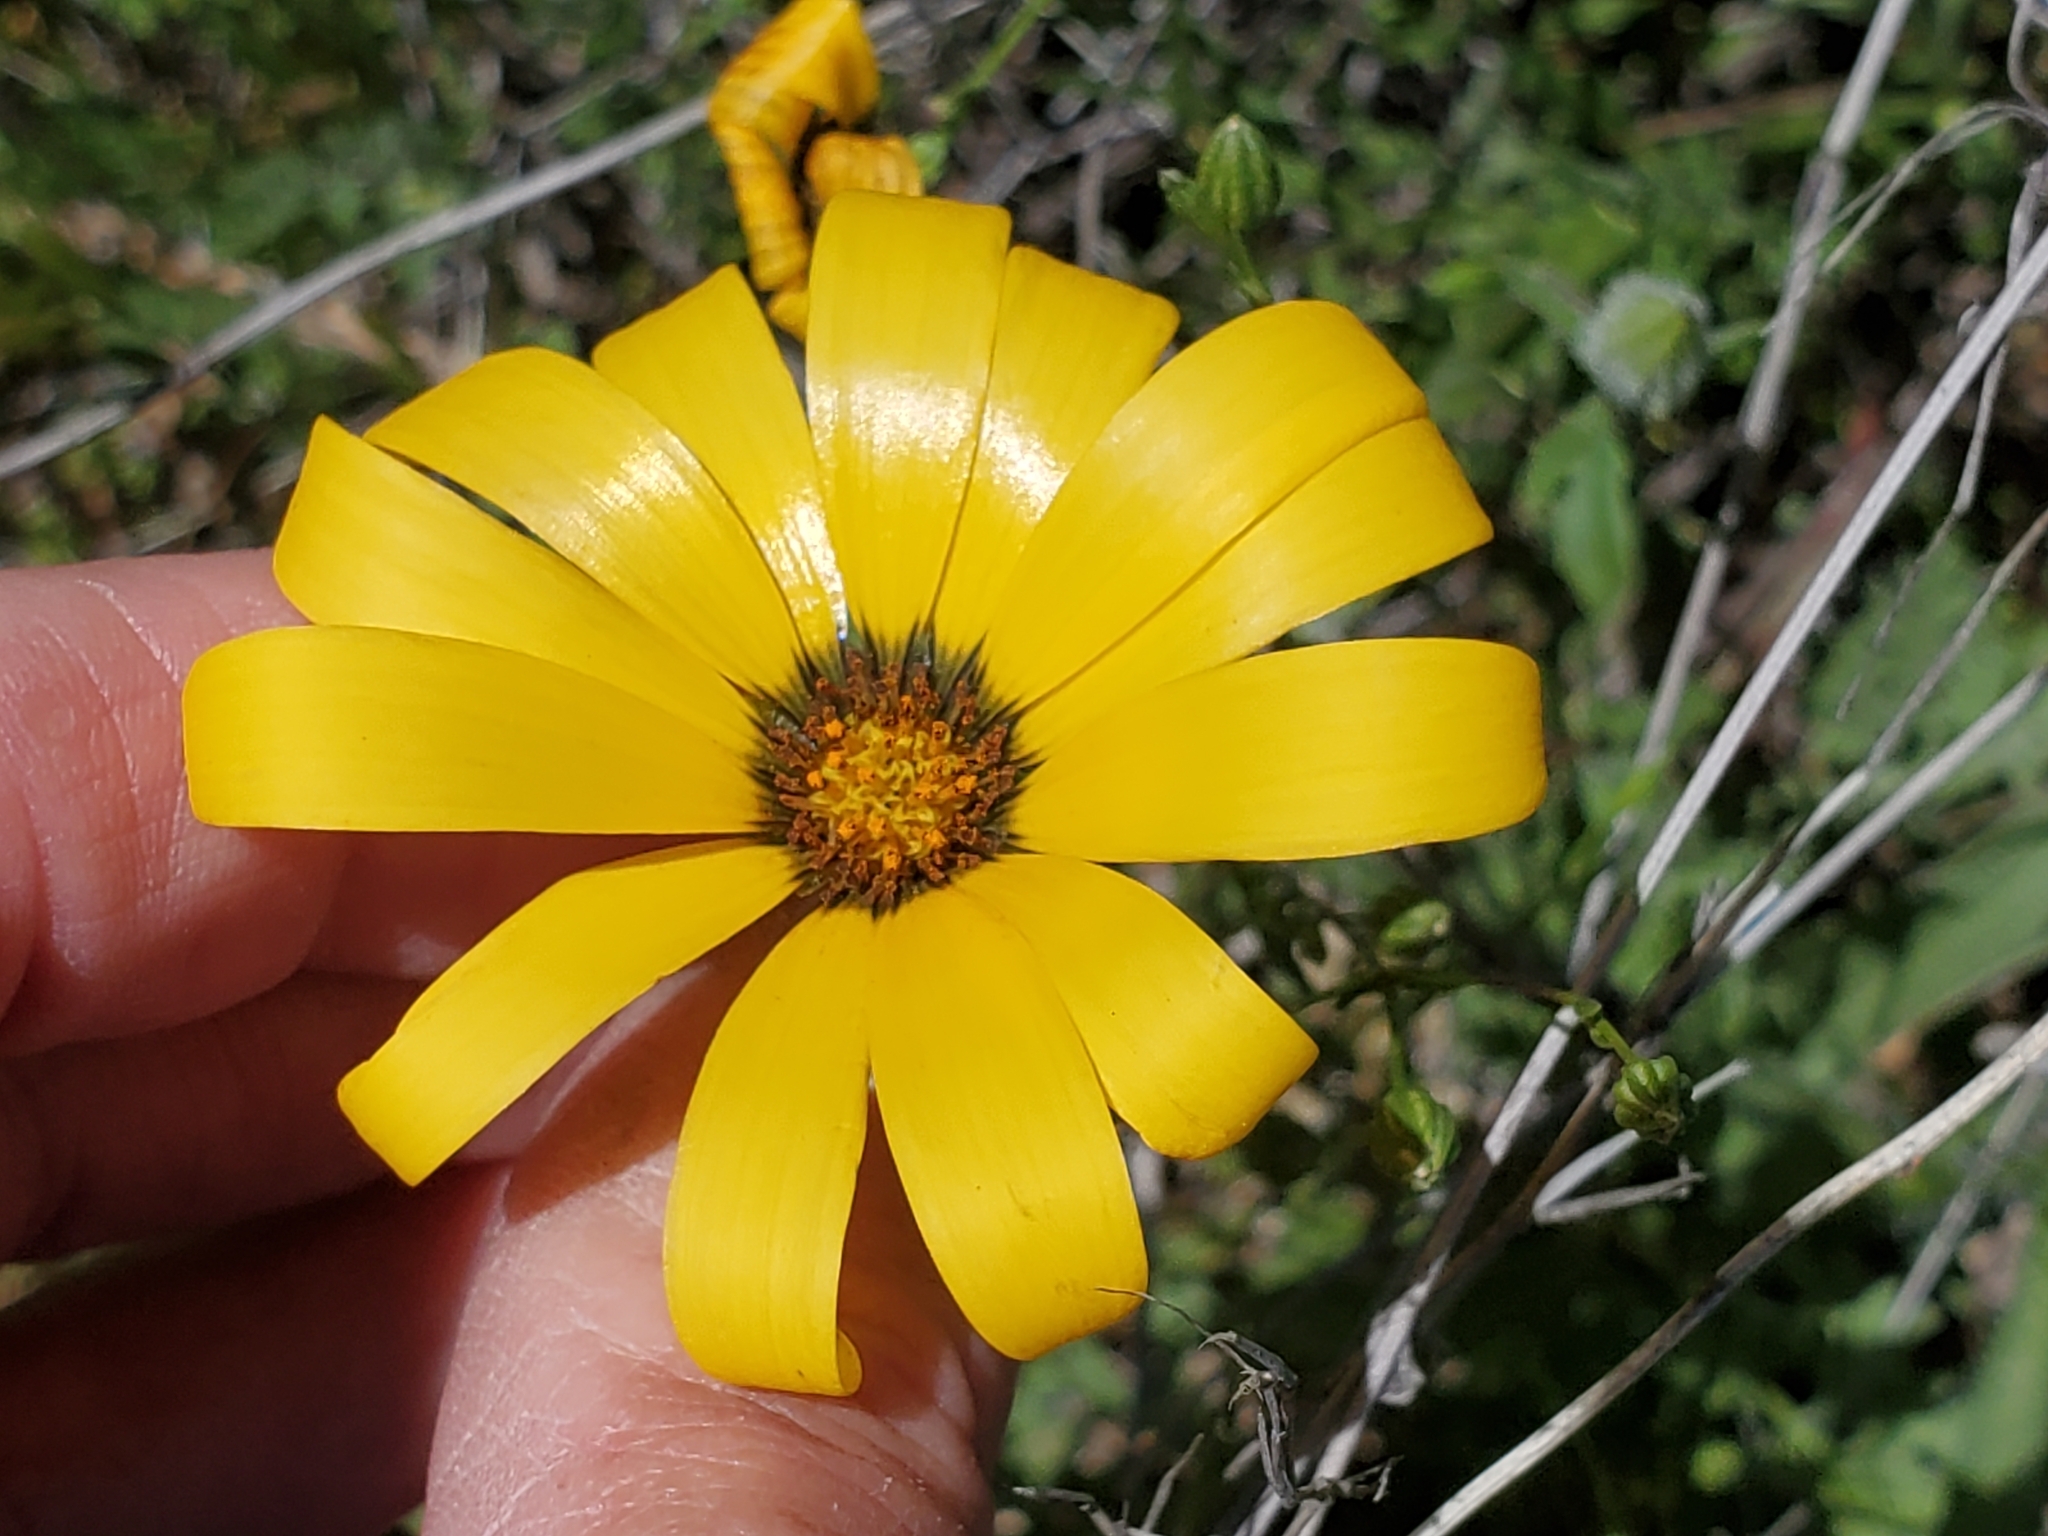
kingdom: Plantae
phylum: Tracheophyta
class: Magnoliopsida
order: Asterales
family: Asteraceae
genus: Dimorphotheca
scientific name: Dimorphotheca sinuata
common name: Glandular cape marigold
